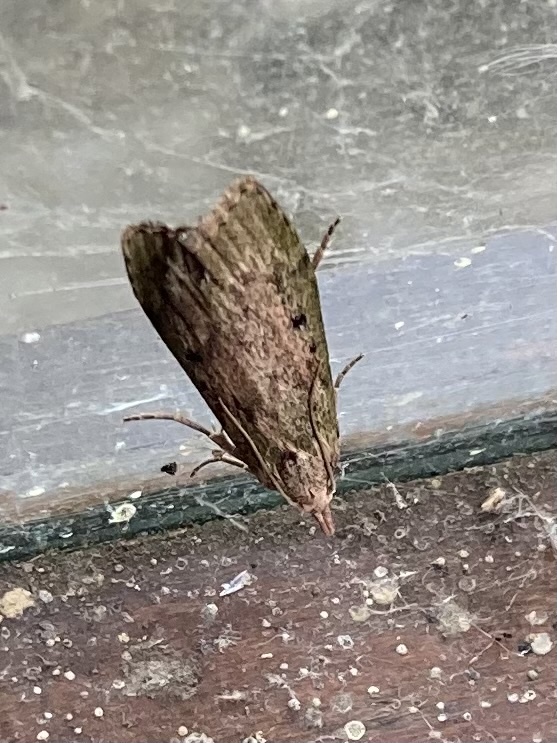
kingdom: Animalia
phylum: Arthropoda
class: Insecta
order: Lepidoptera
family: Pyralidae
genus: Aphomia
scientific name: Aphomia sociella
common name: Bee moth
